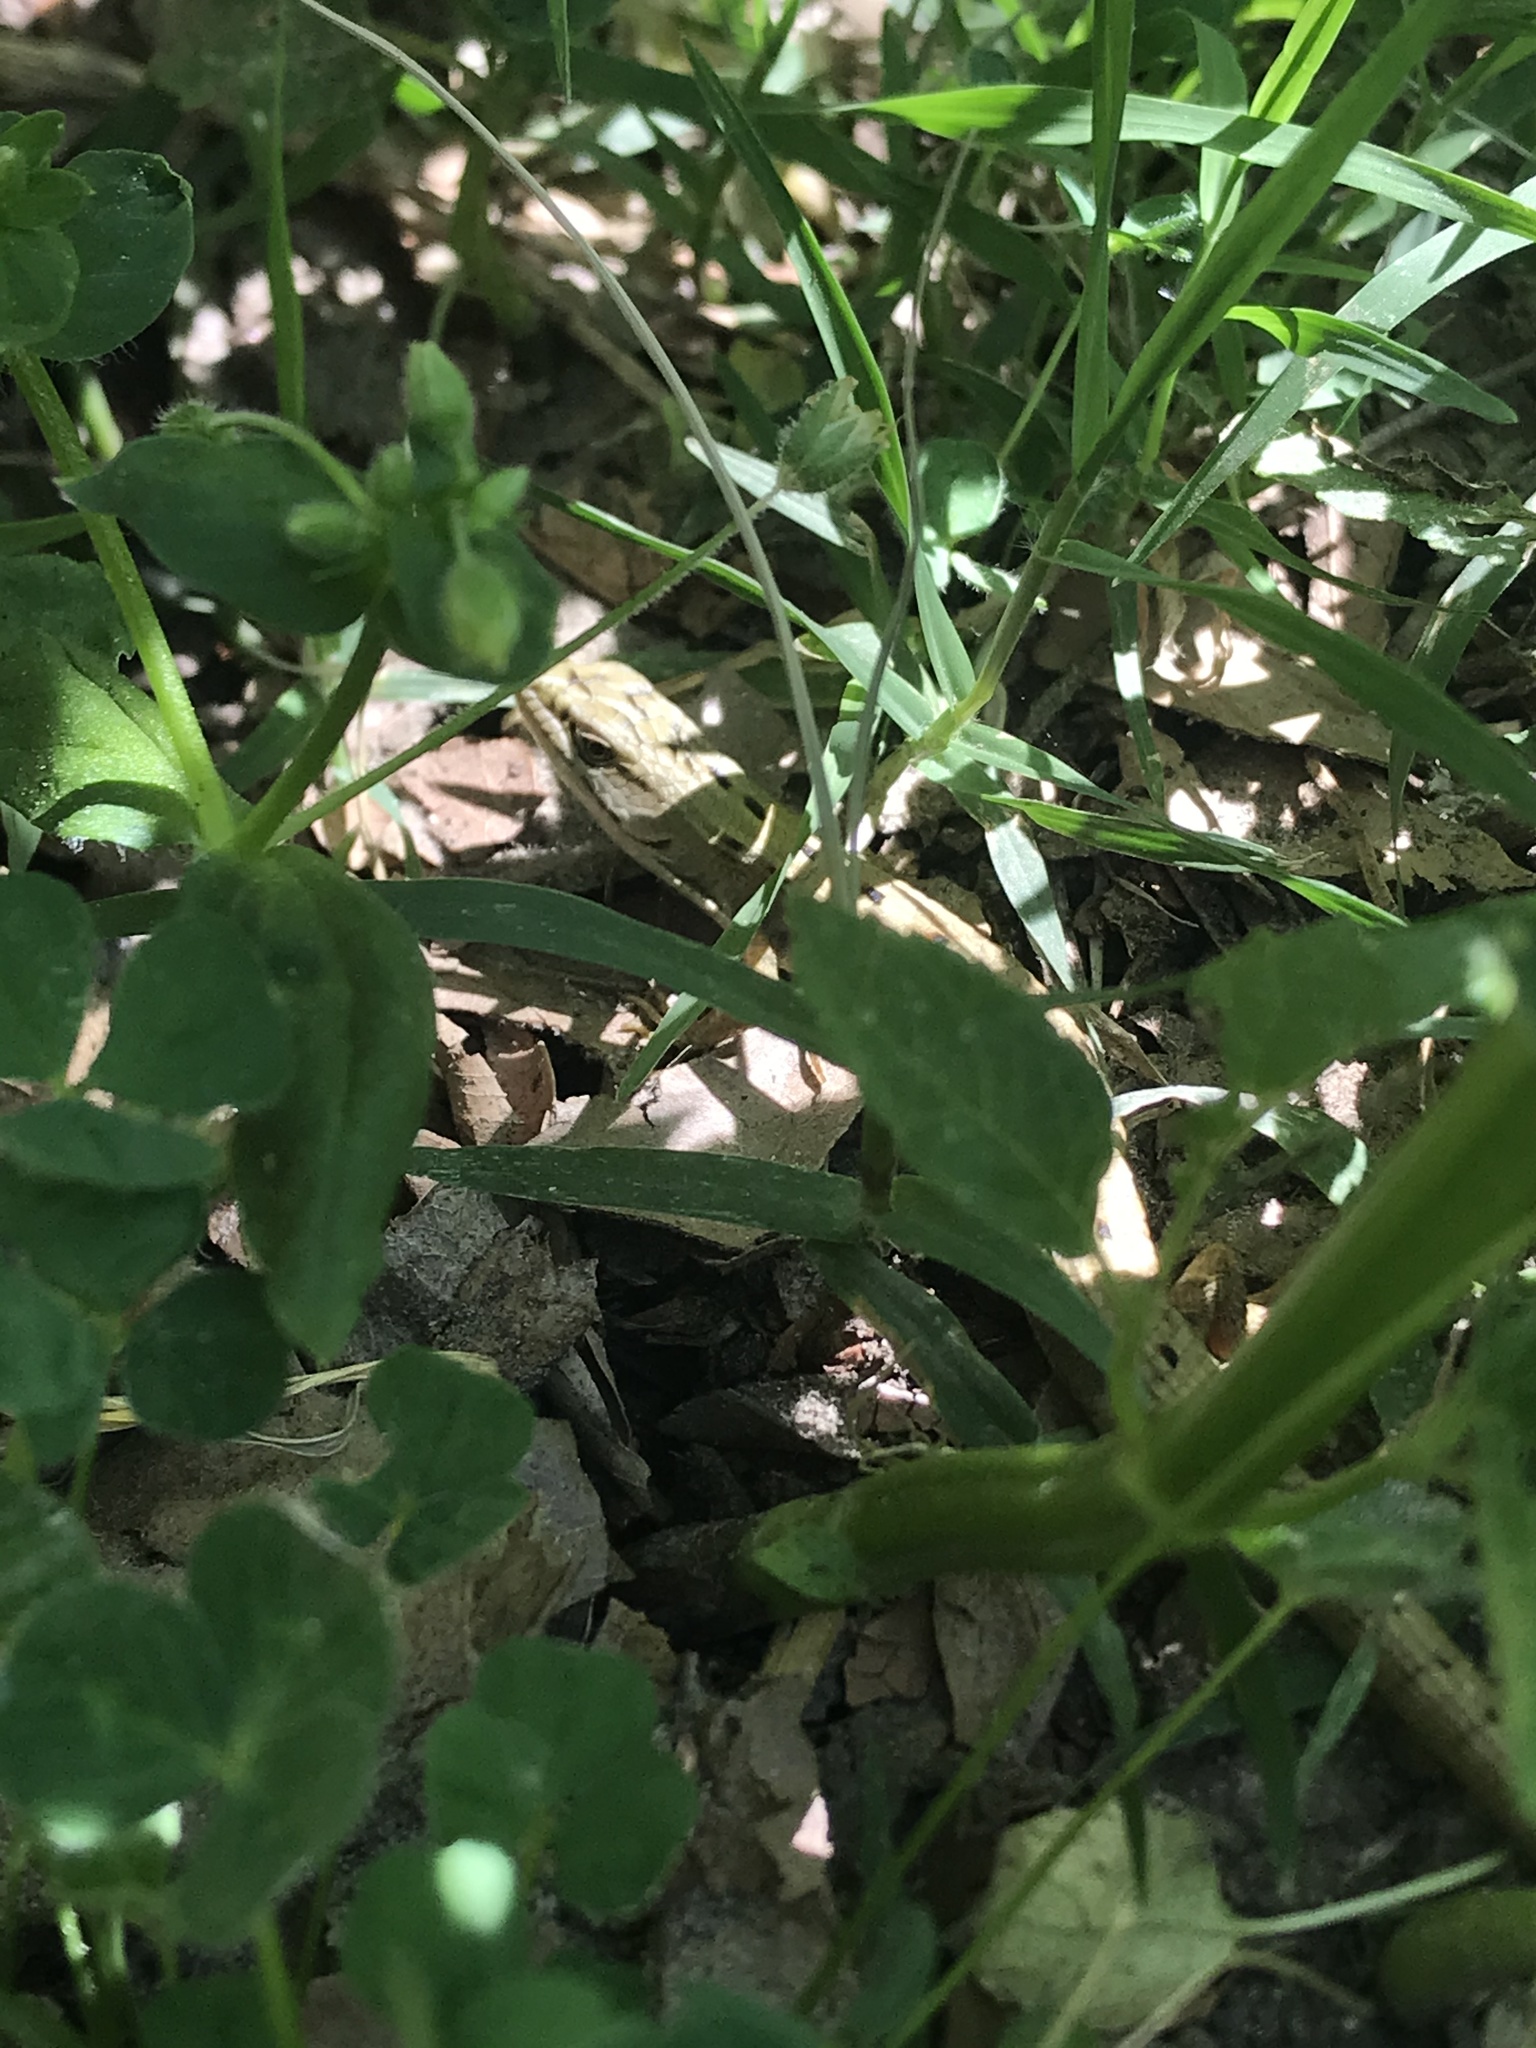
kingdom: Animalia
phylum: Chordata
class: Squamata
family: Anguidae
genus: Elgaria
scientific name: Elgaria multicarinata
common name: Southern alligator lizard
